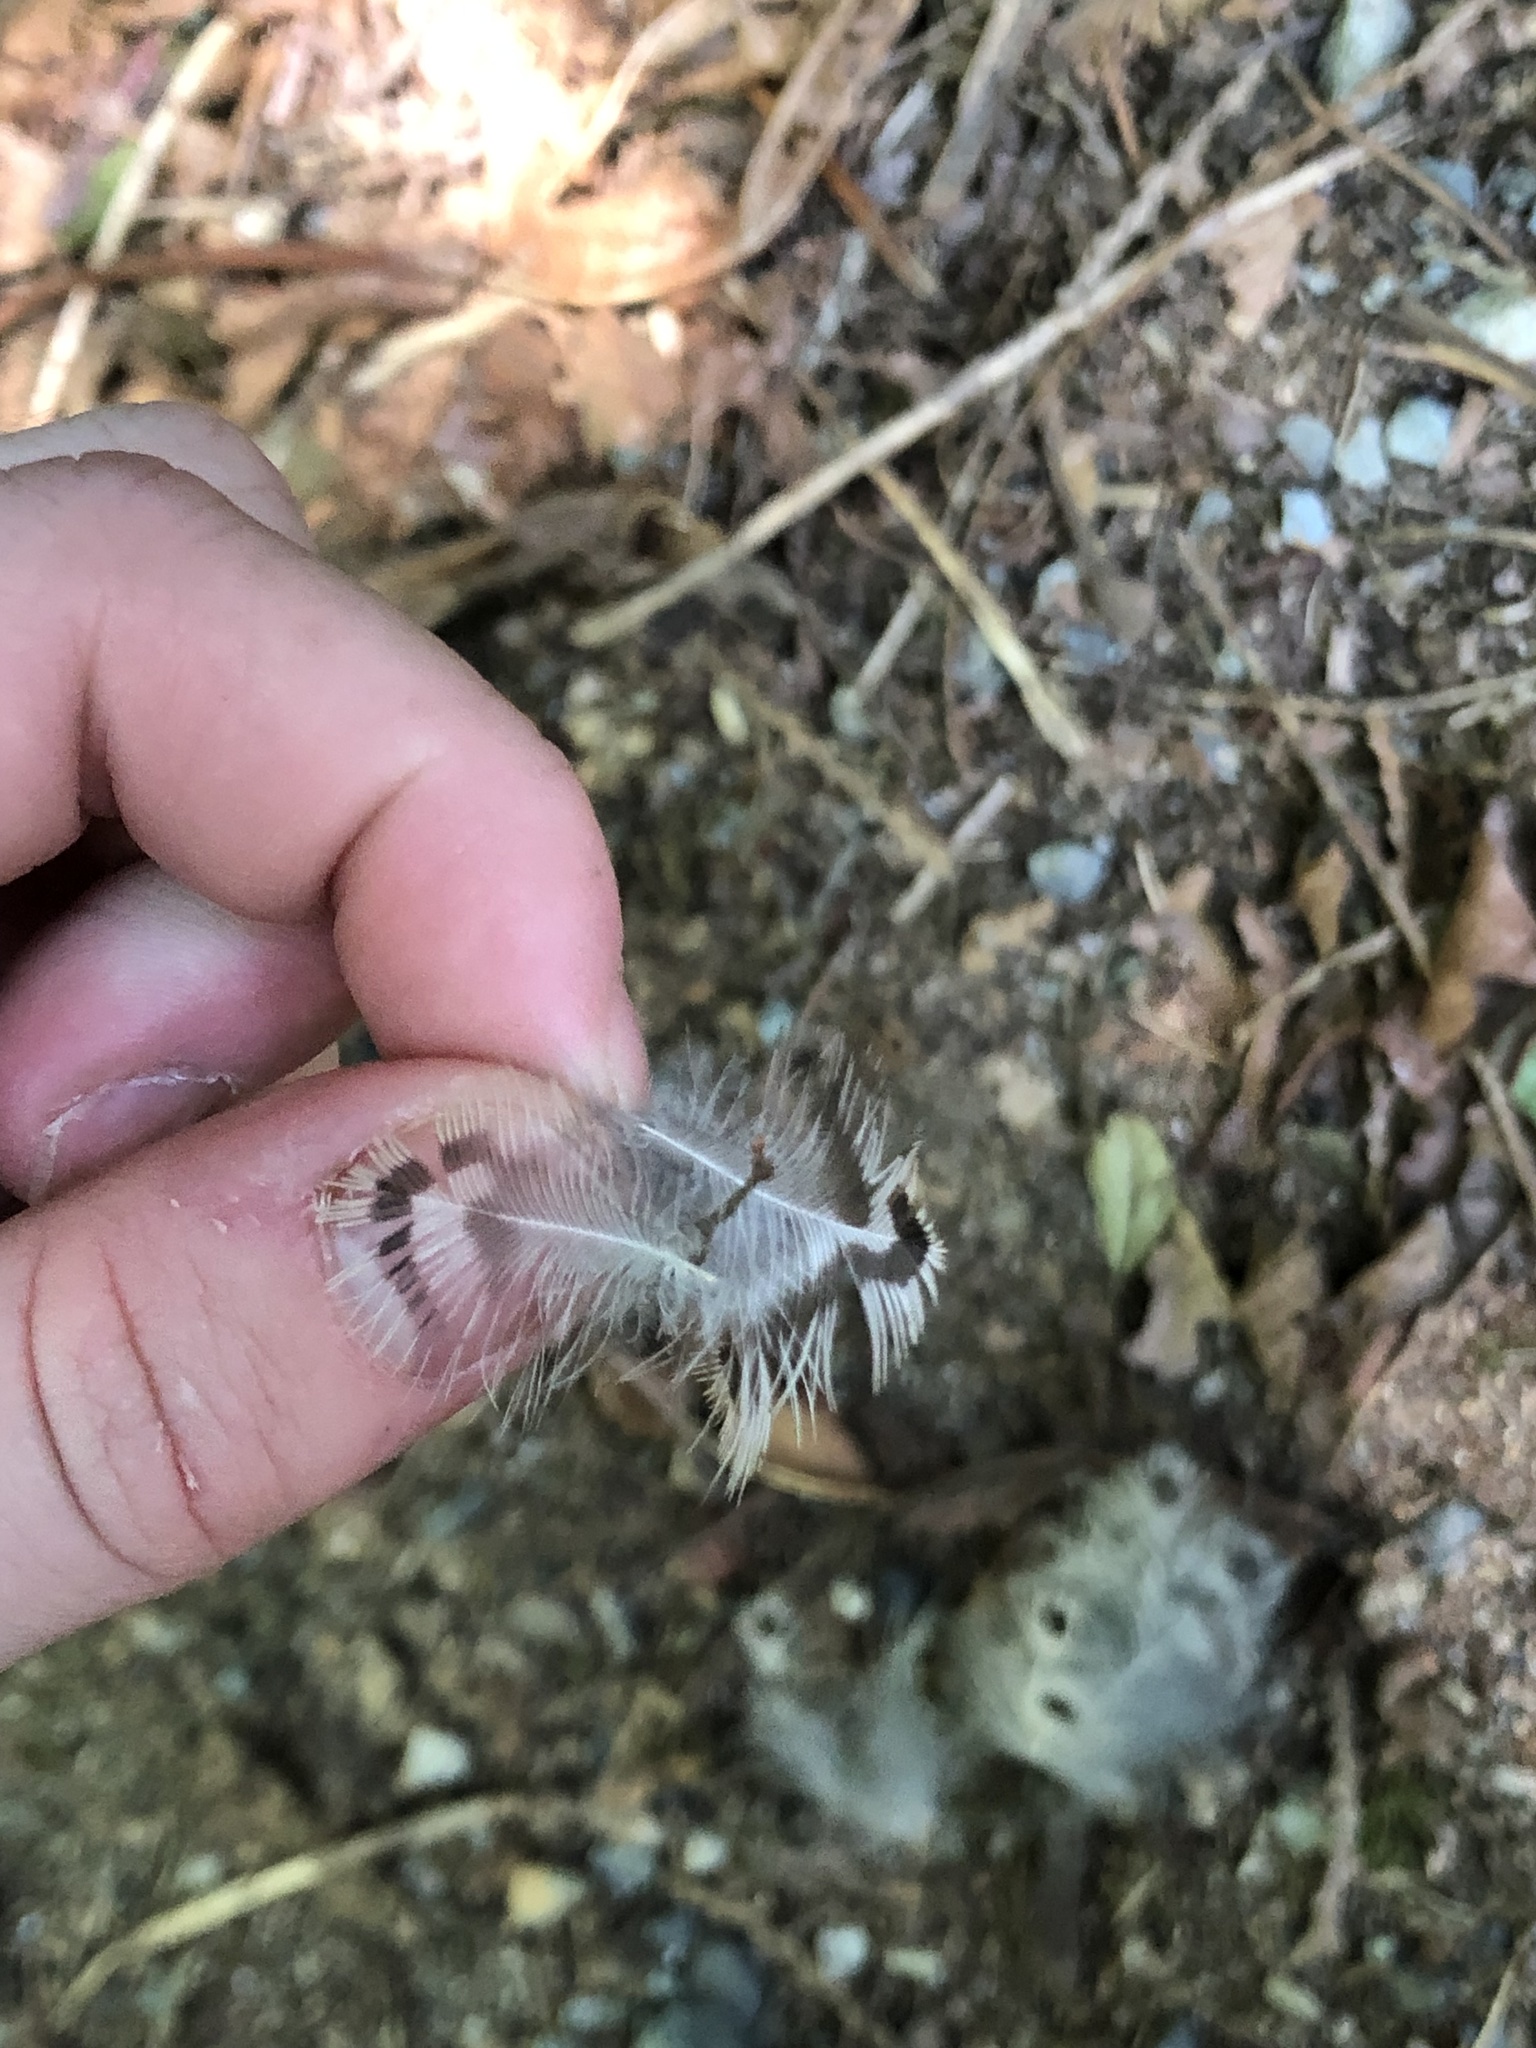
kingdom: Animalia
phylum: Chordata
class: Aves
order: Piciformes
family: Picidae
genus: Colaptes
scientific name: Colaptes auratus
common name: Northern flicker
